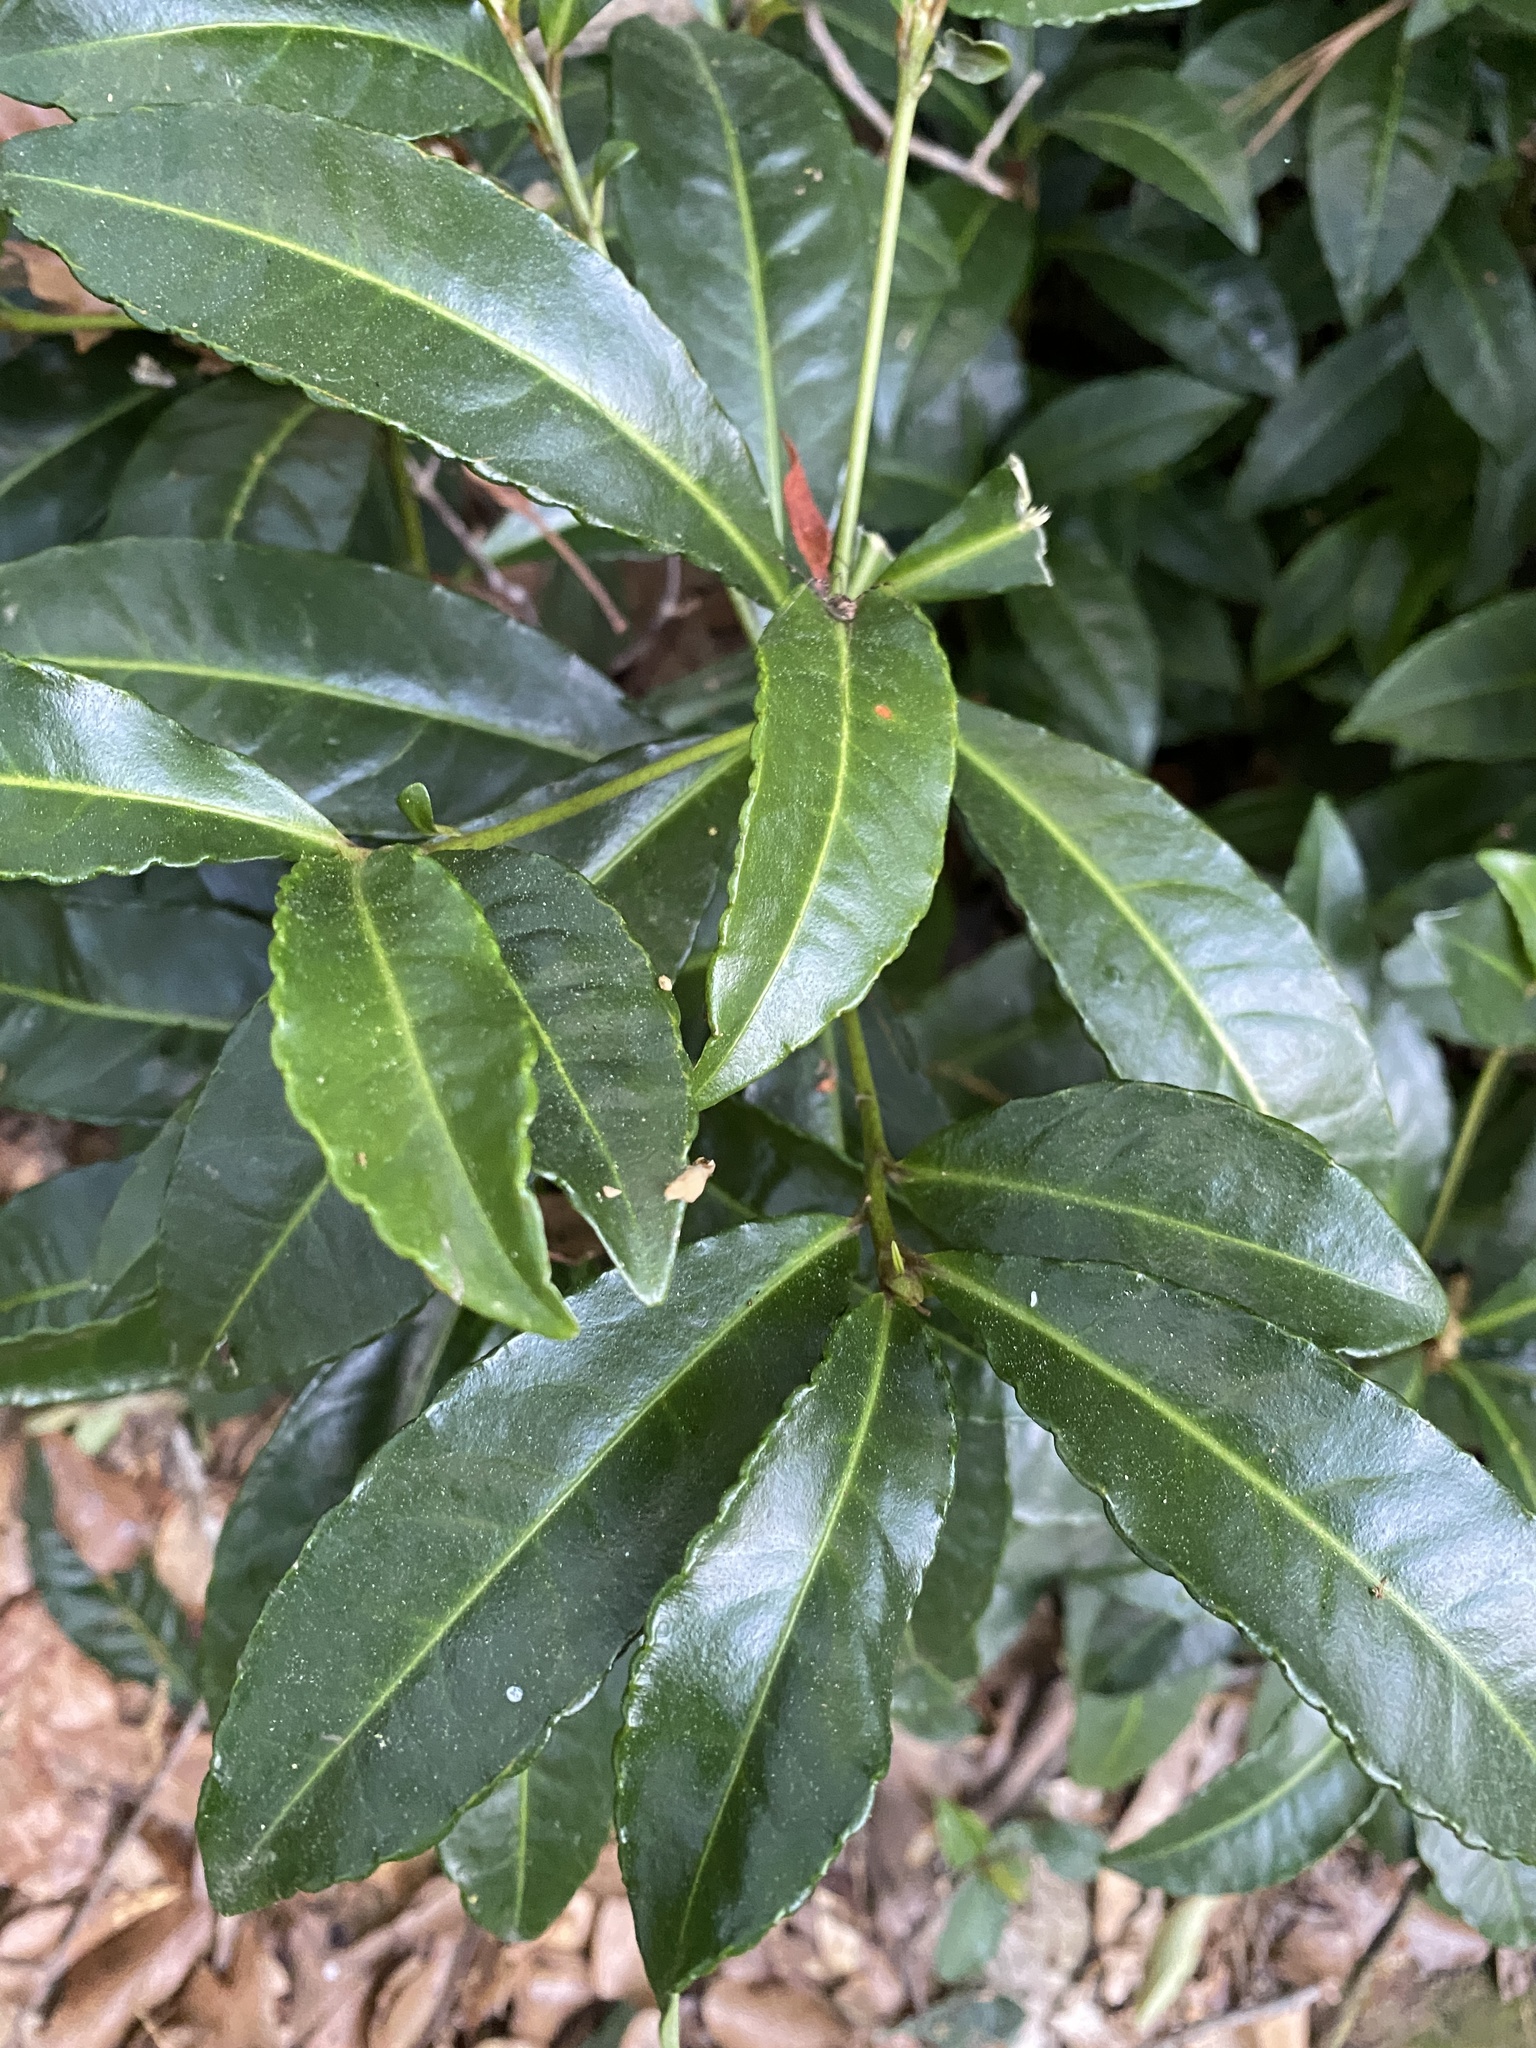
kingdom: Plantae
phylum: Tracheophyta
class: Magnoliopsida
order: Ericales
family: Primulaceae
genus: Ardisia
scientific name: Ardisia crenata
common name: Hen's eyes
